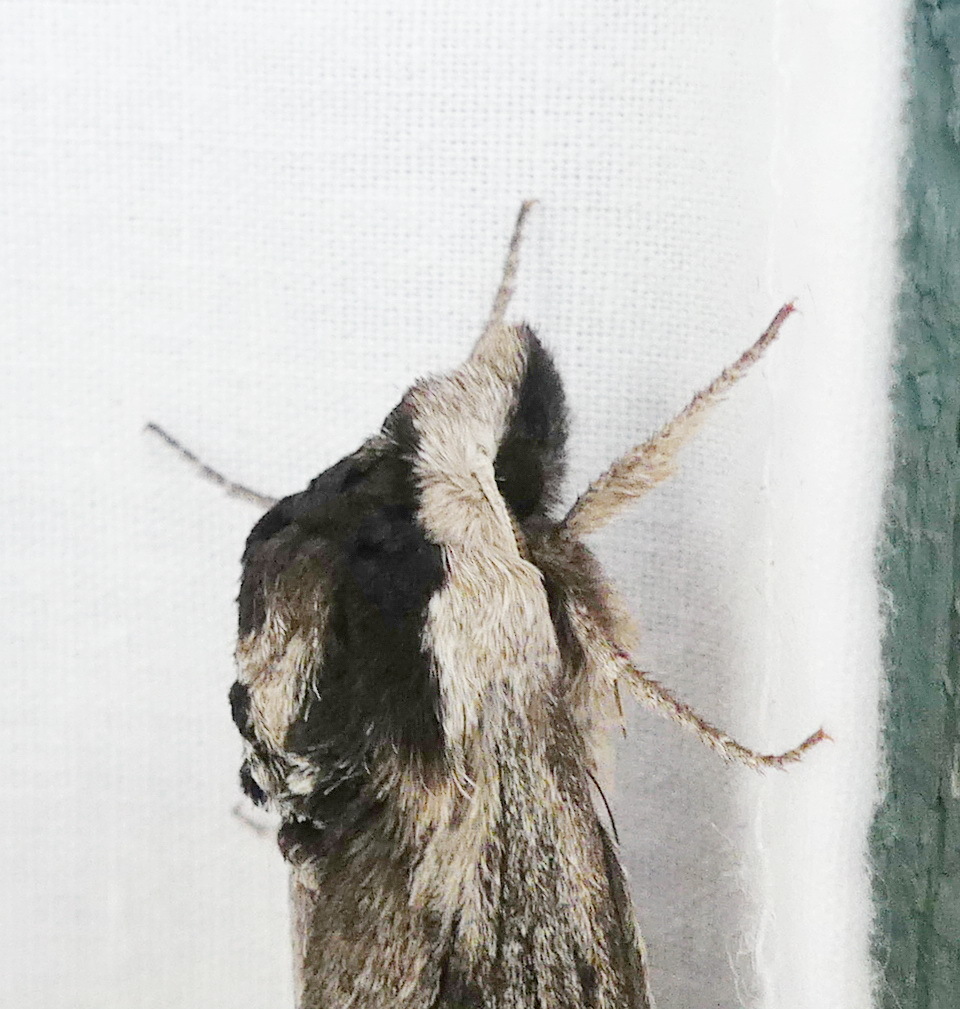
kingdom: Animalia
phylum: Arthropoda
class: Insecta
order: Lepidoptera
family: Sphingidae
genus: Sphinx
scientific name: Sphinx poecila
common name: Northern apple sphinx
